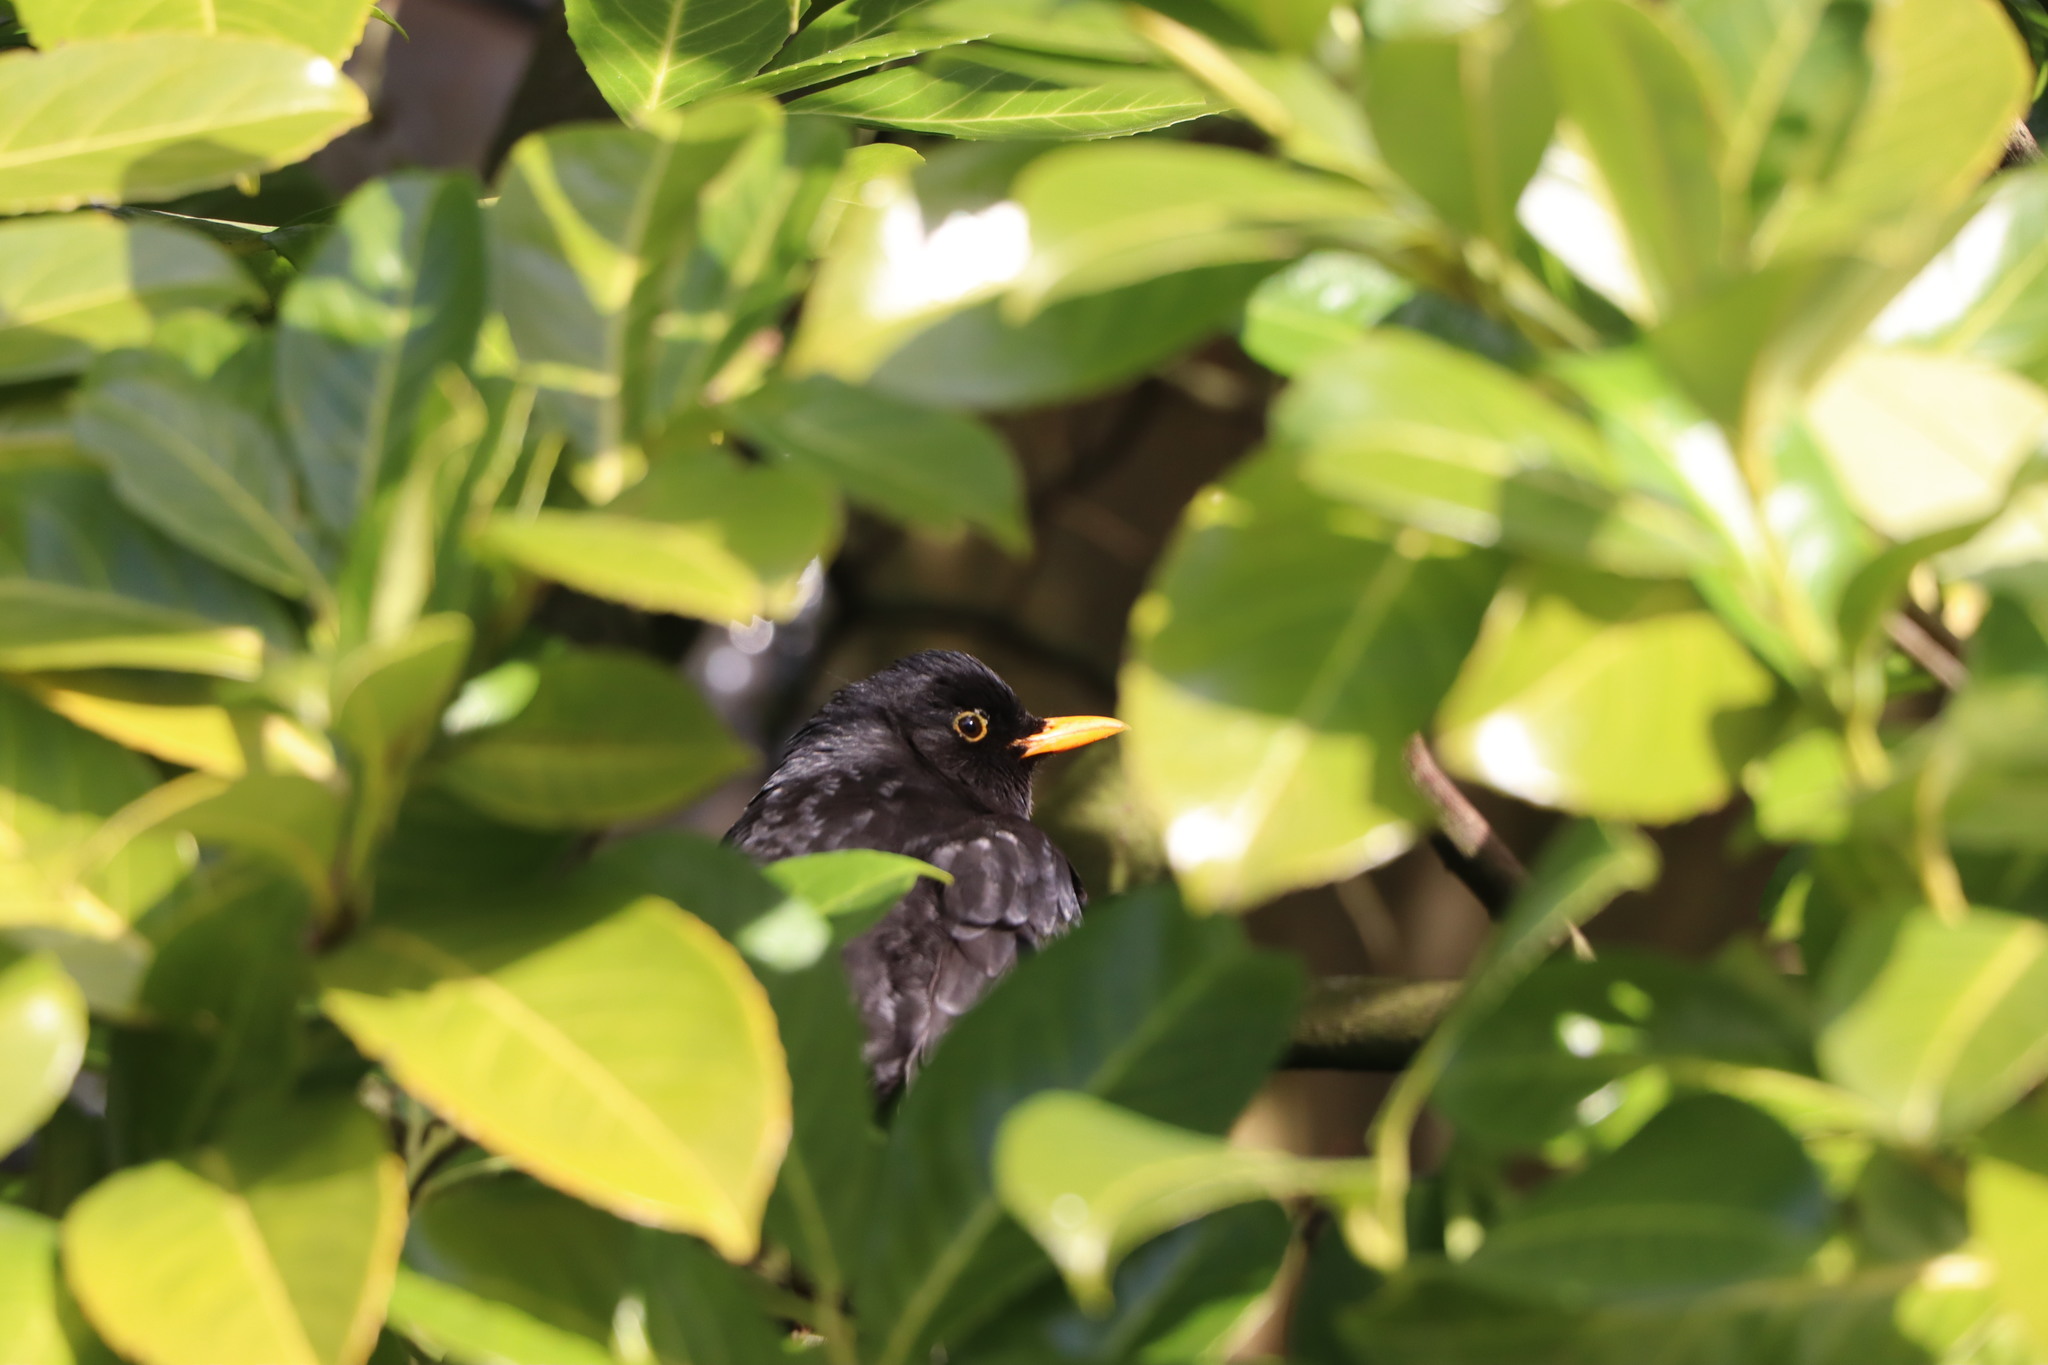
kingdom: Animalia
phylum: Chordata
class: Aves
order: Passeriformes
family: Turdidae
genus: Turdus
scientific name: Turdus merula
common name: Common blackbird
